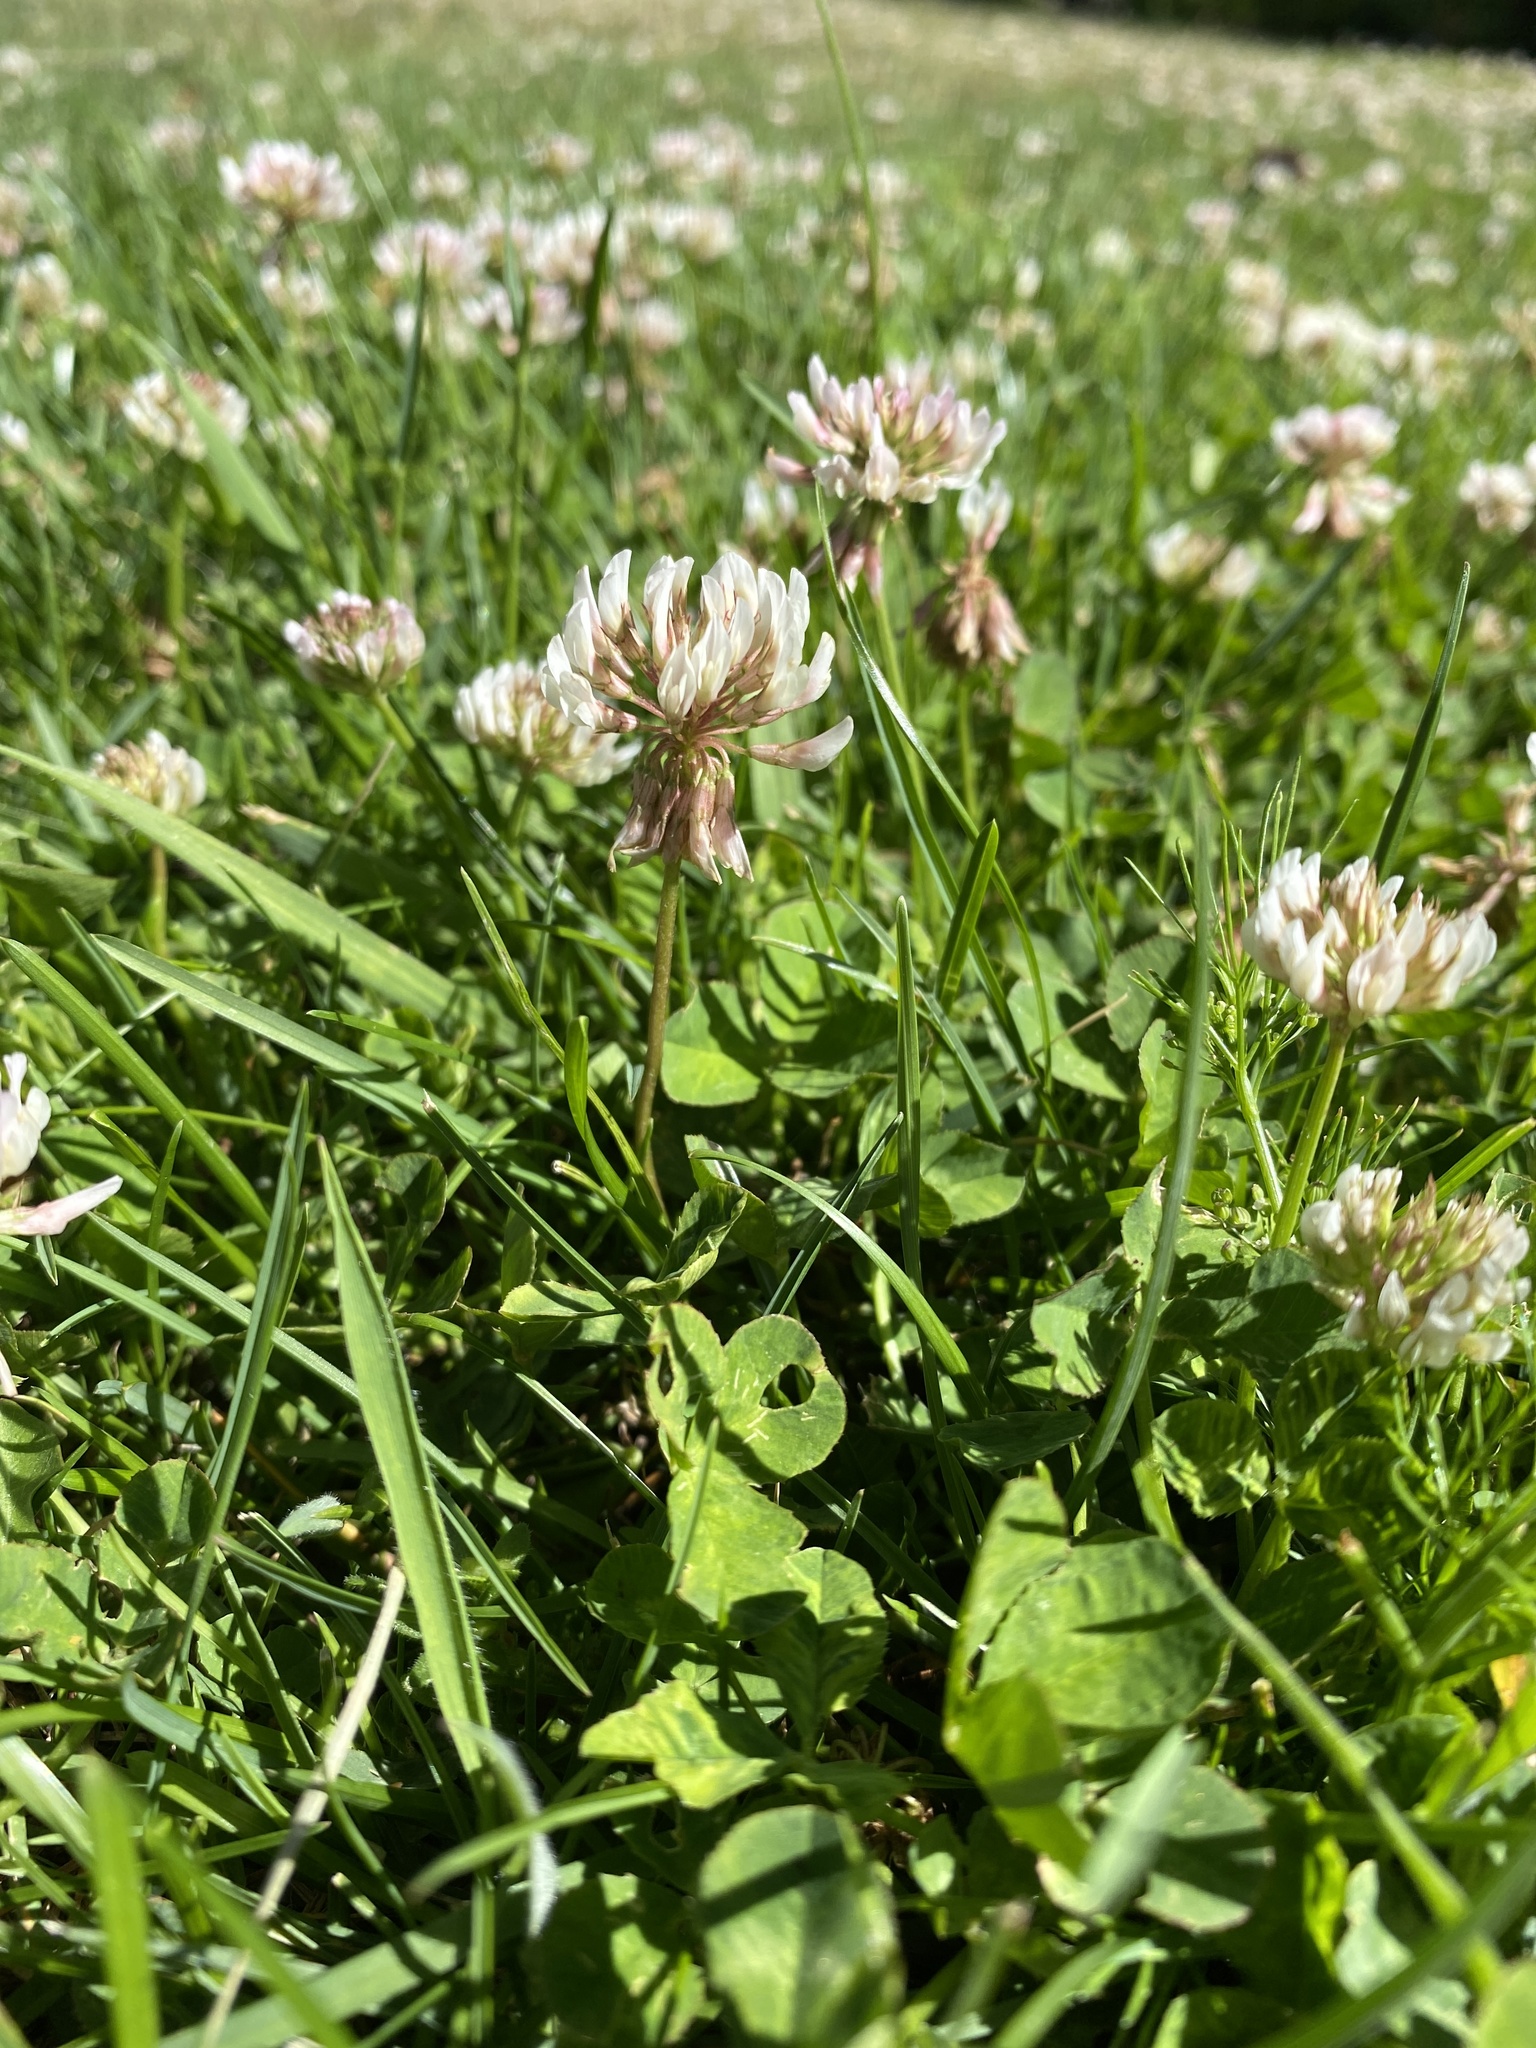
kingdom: Plantae
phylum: Tracheophyta
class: Magnoliopsida
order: Fabales
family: Fabaceae
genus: Trifolium
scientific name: Trifolium repens
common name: White clover
